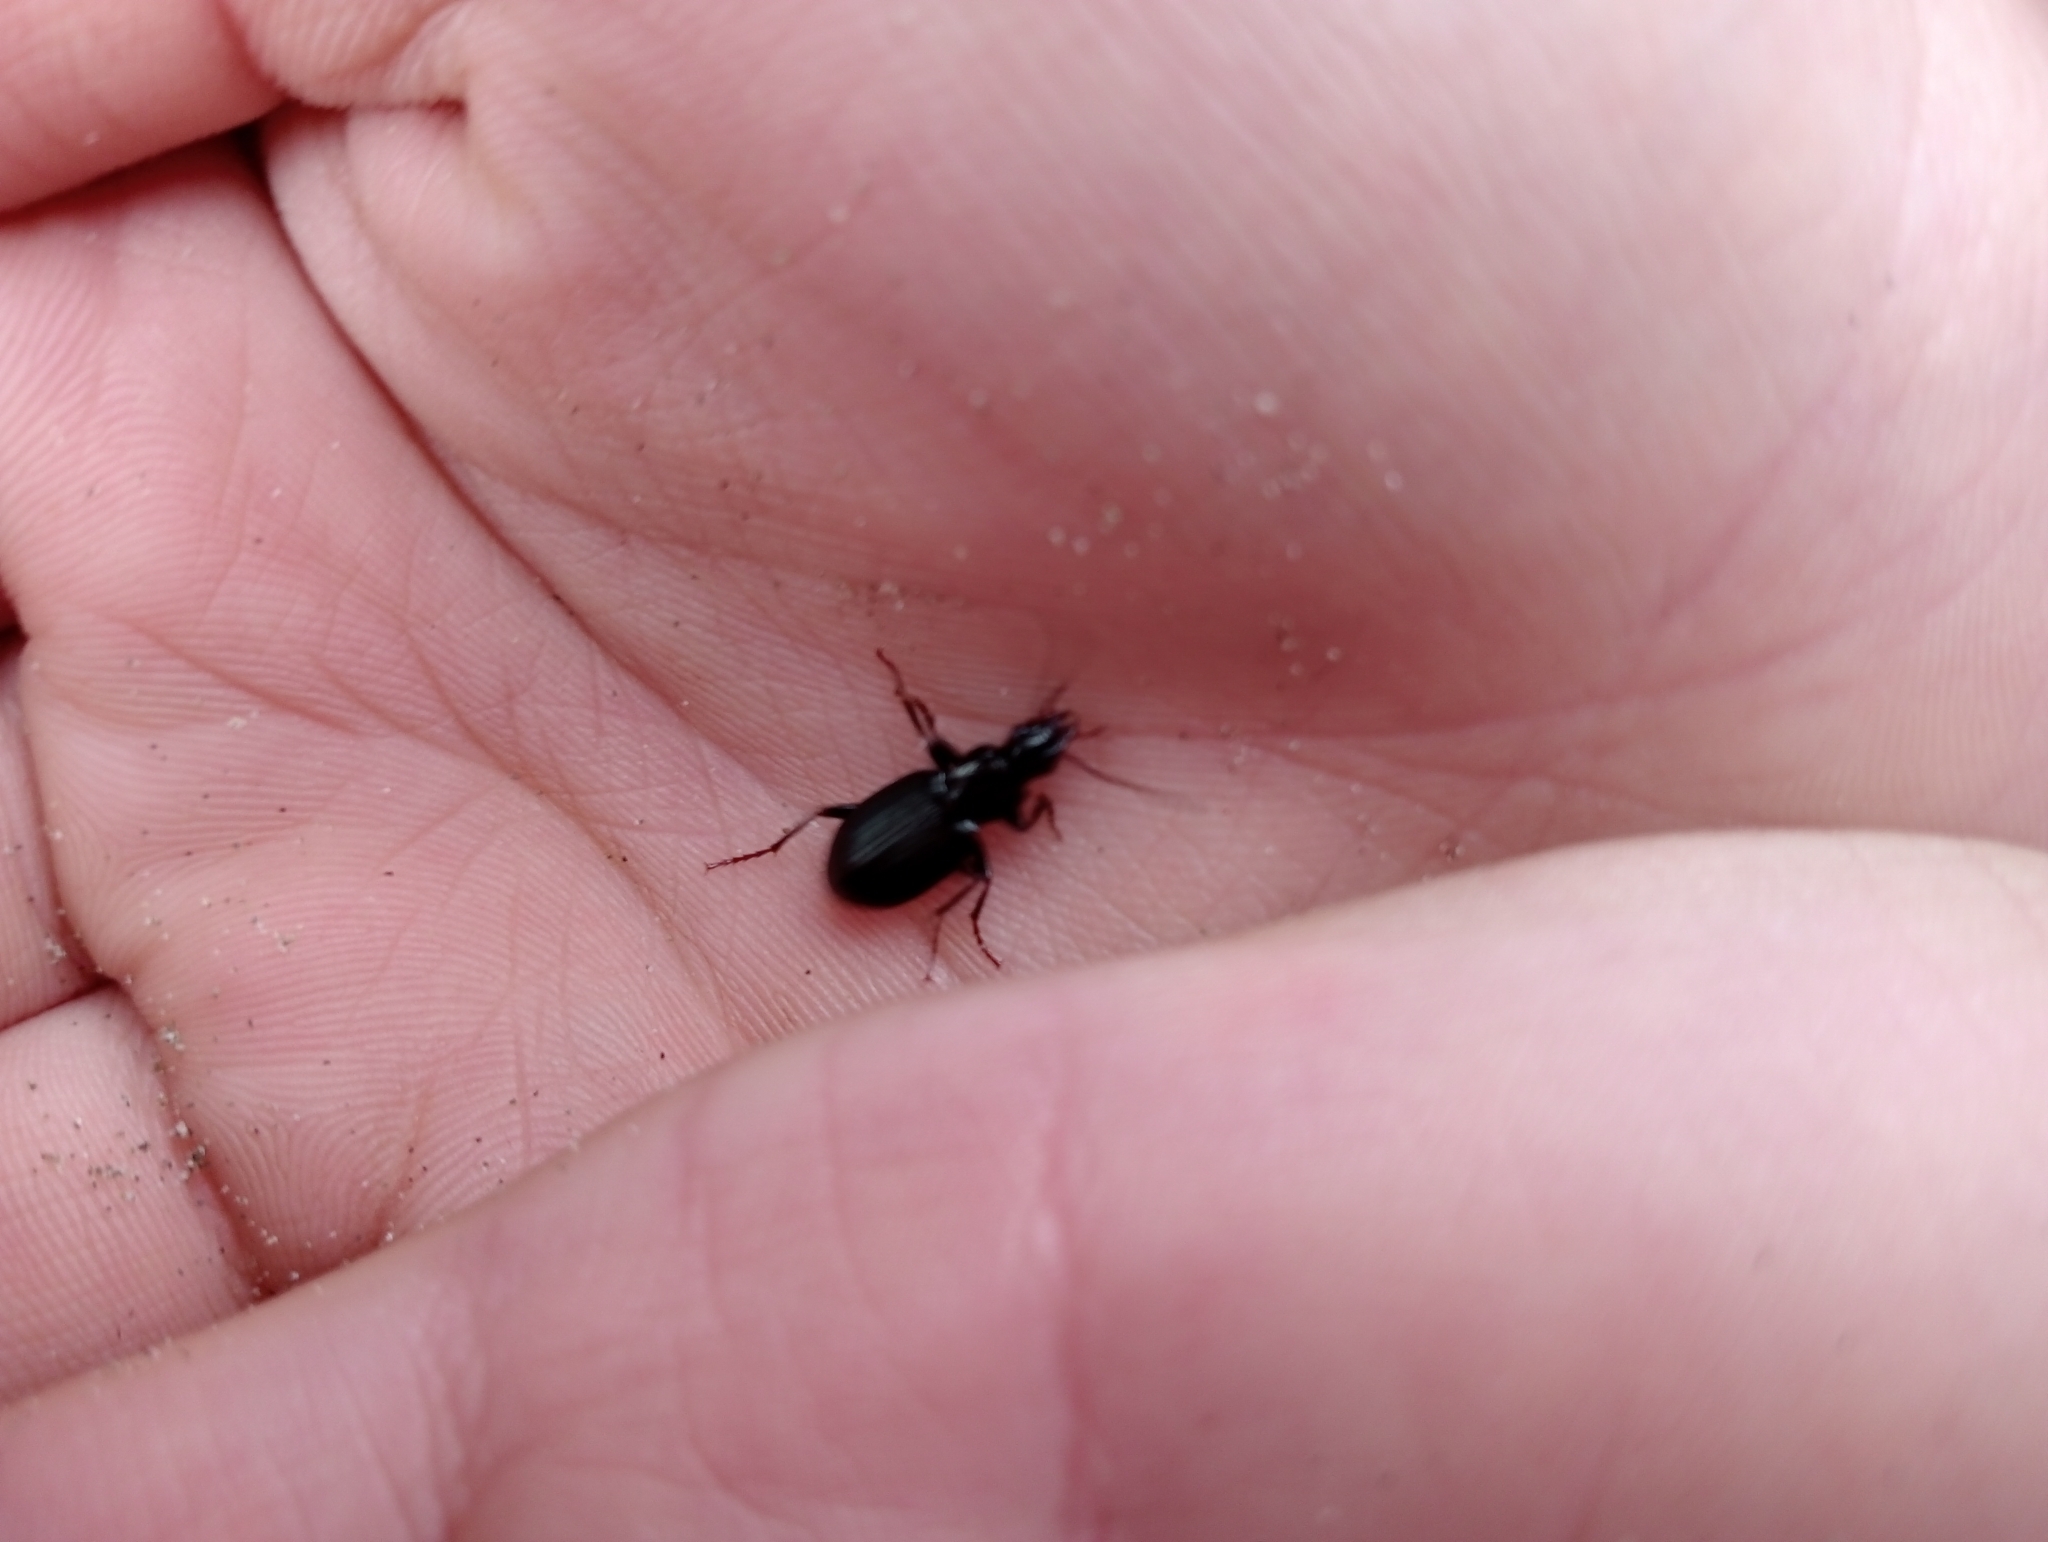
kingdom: Animalia
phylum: Arthropoda
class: Insecta
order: Coleoptera
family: Carabidae
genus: Laemostenus
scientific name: Laemostenus complanatus
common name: Cosmopolitan ground beetle
